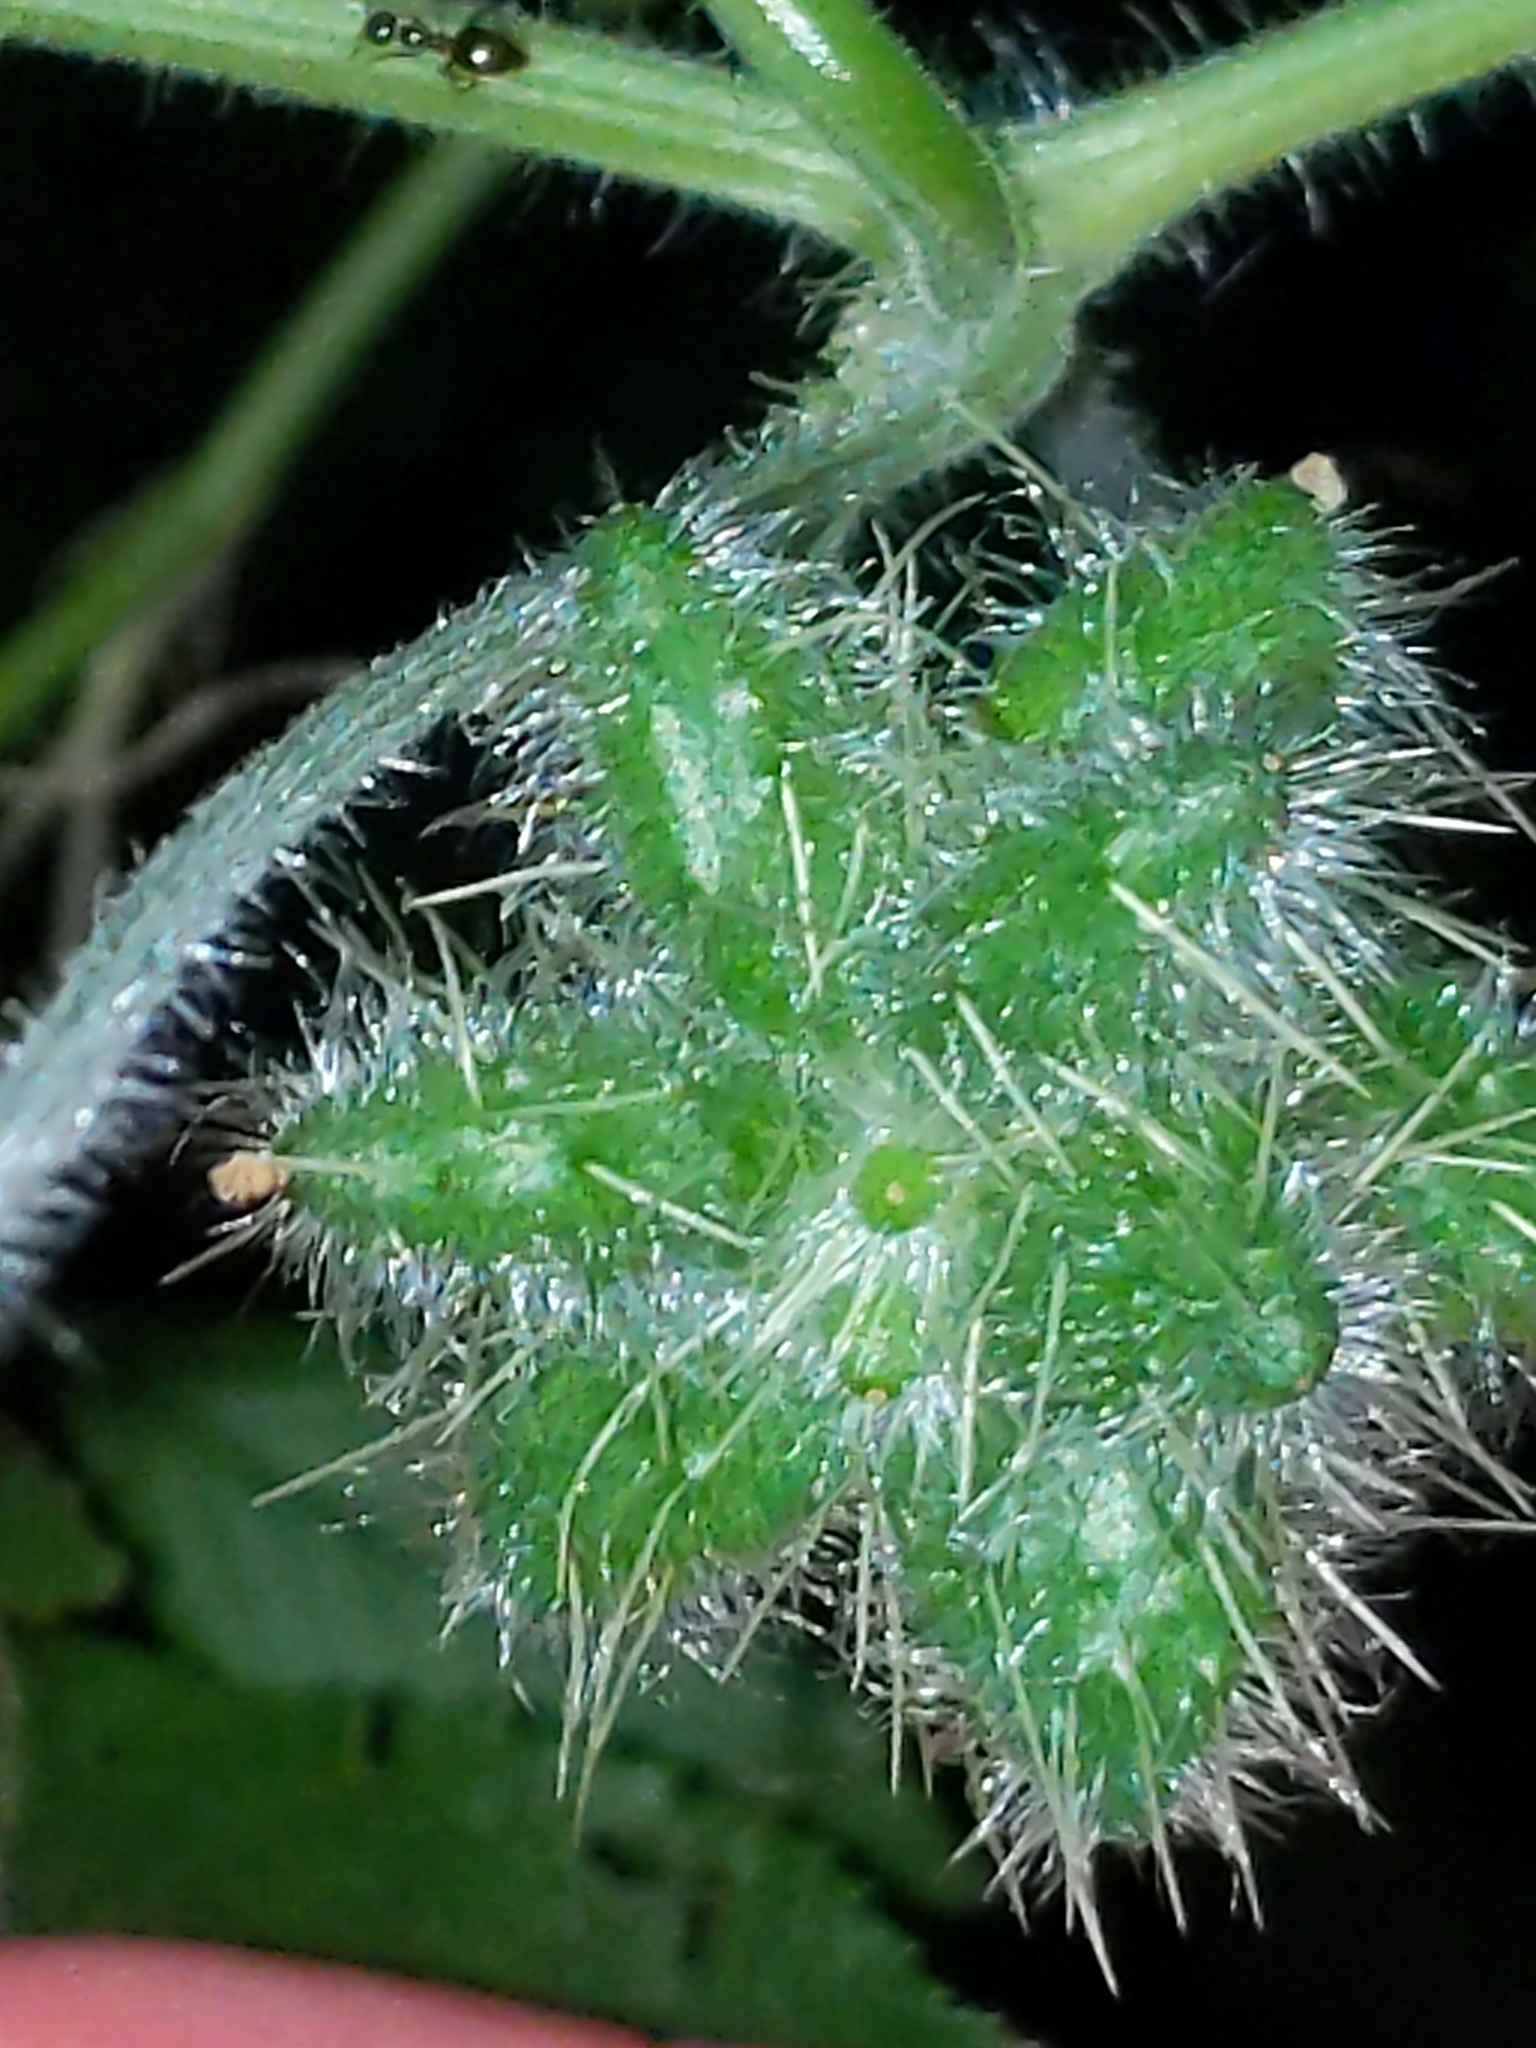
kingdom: Plantae
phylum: Tracheophyta
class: Magnoliopsida
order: Cucurbitales
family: Cucurbitaceae
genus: Sicyos
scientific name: Sicyos angulatus
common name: Angled burr cucumber
